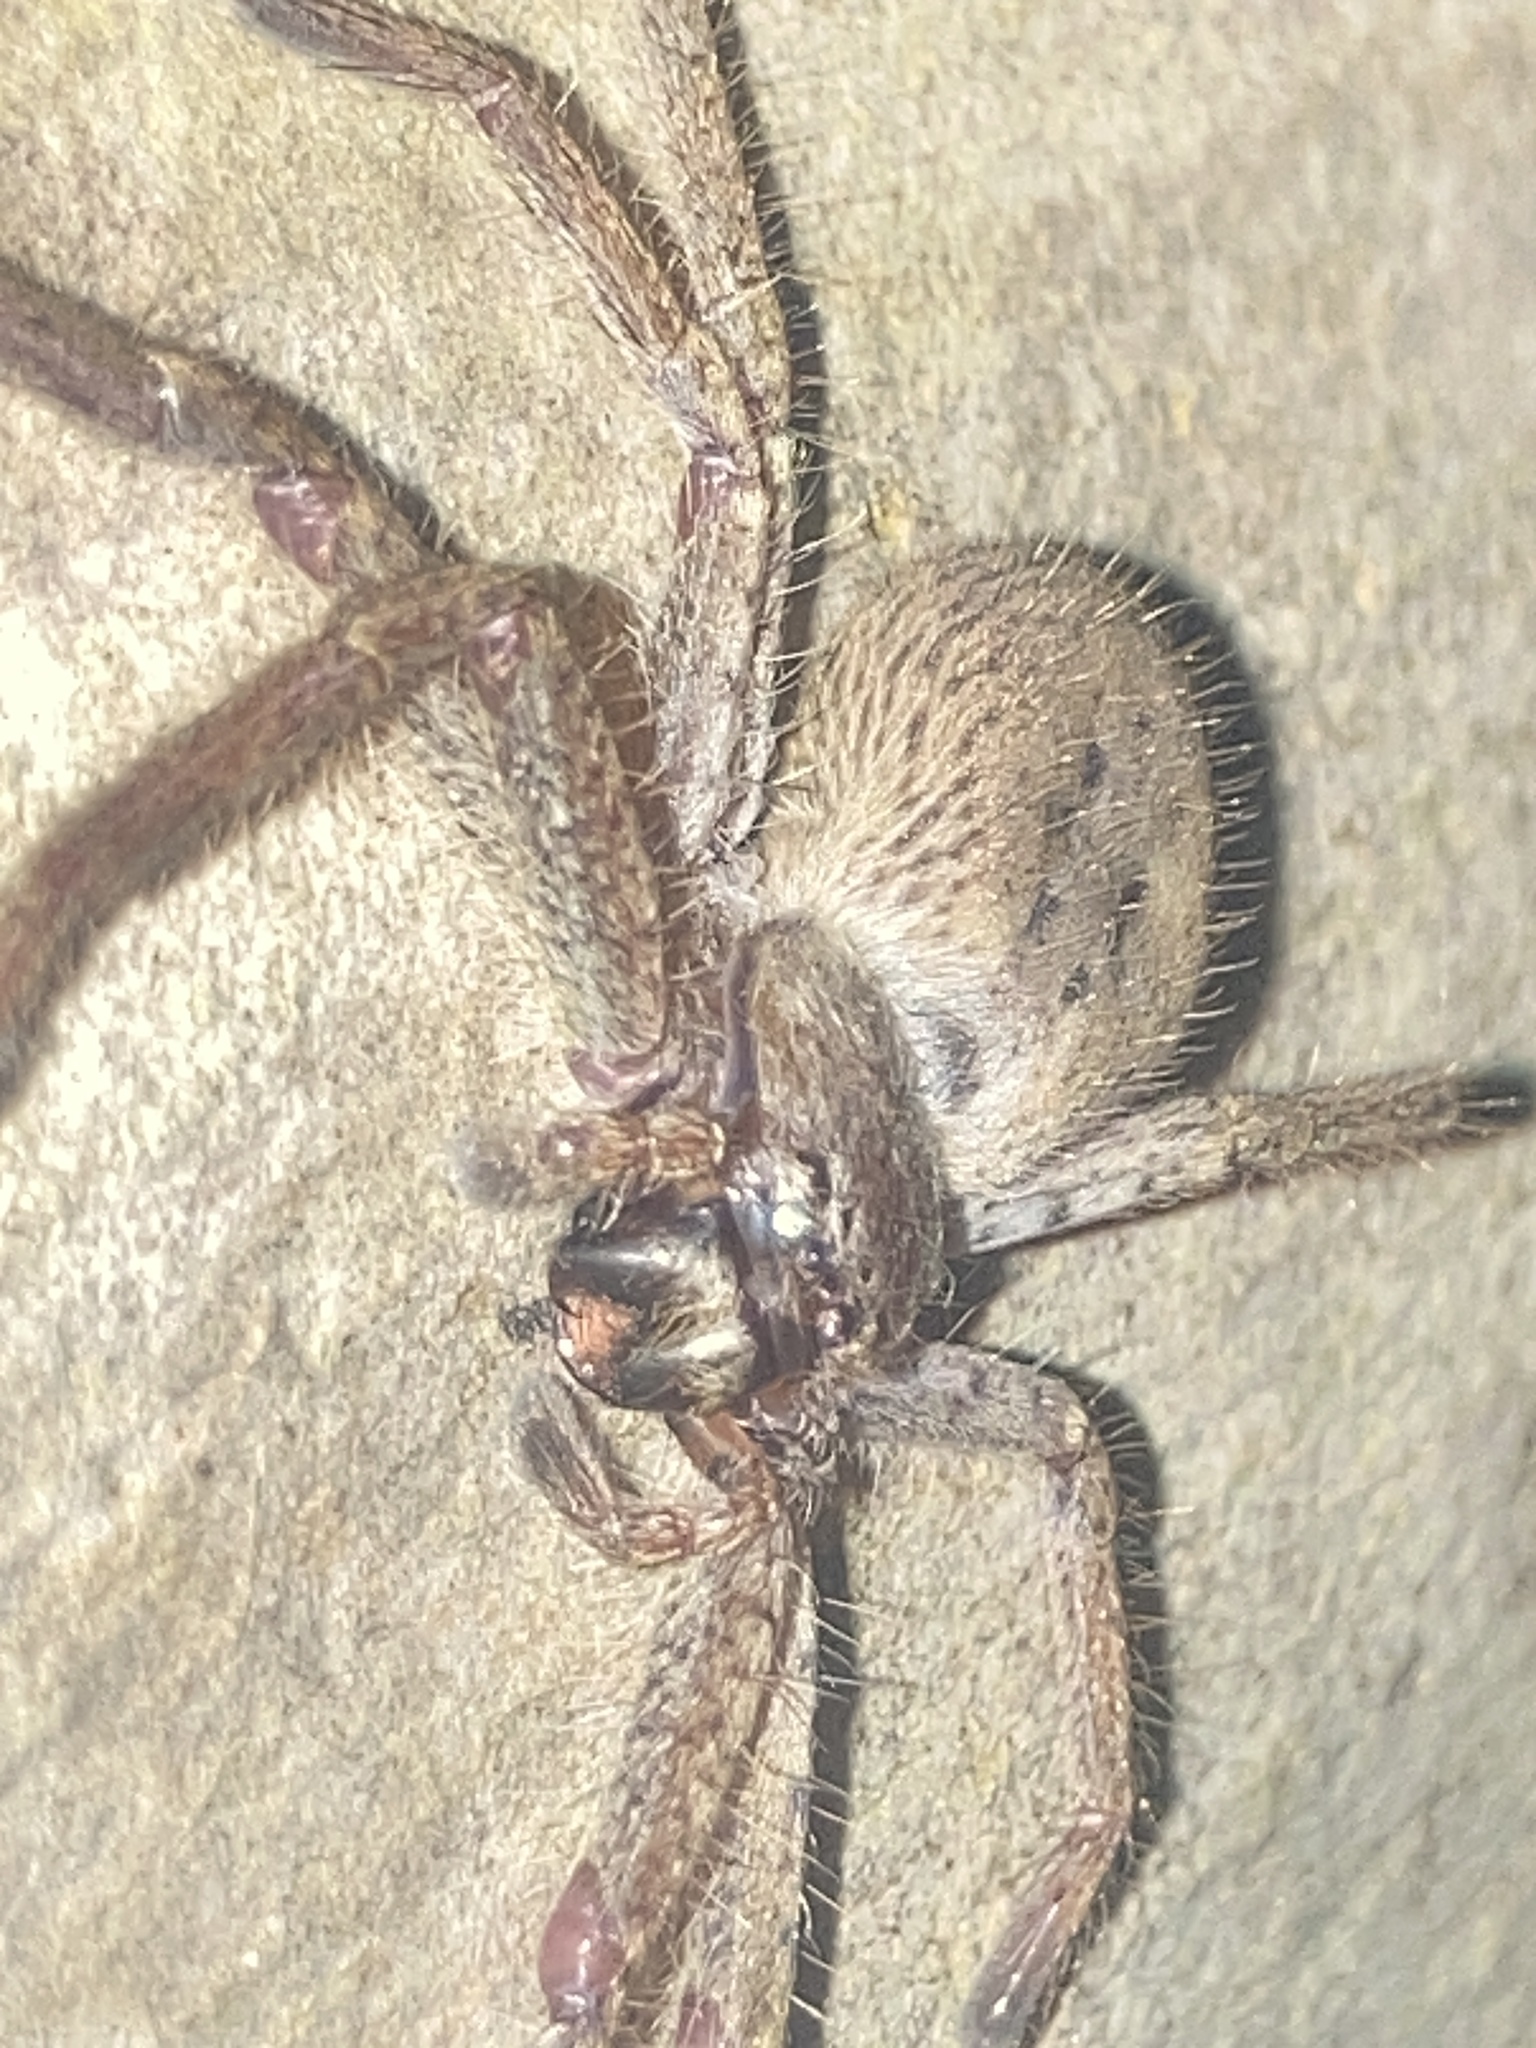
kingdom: Animalia
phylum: Arthropoda
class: Arachnida
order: Araneae
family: Sparassidae
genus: Isopeda
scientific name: Isopeda villosa
